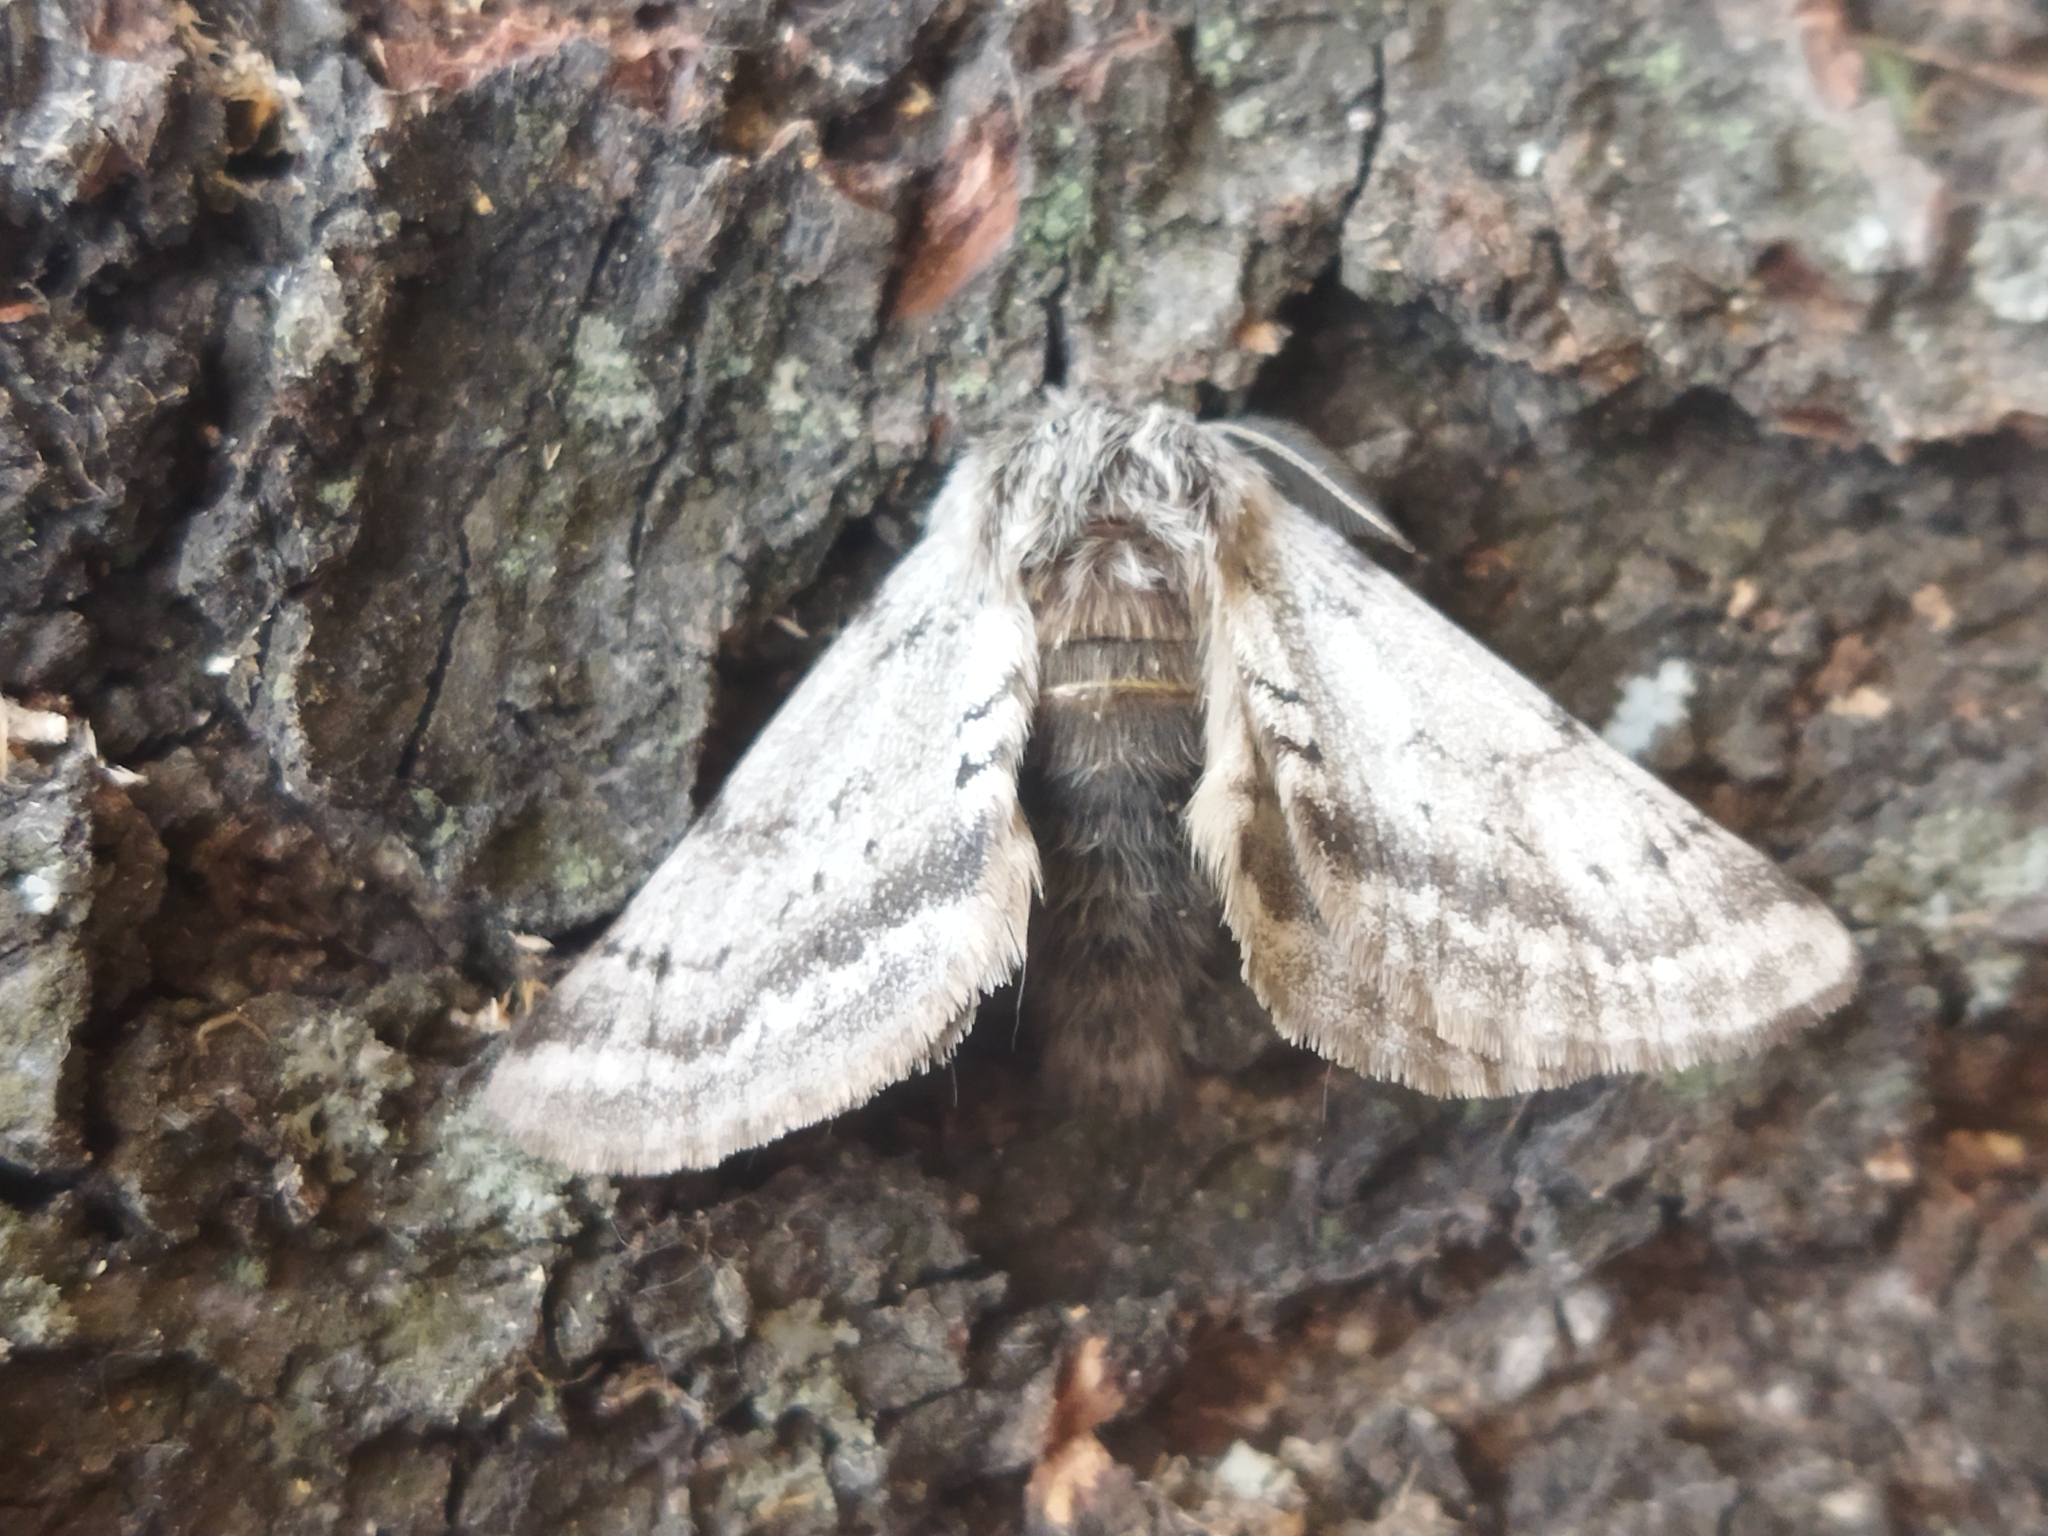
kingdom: Animalia
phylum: Arthropoda
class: Insecta
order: Lepidoptera
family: Geometridae
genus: Lycia
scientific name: Lycia graecarius
